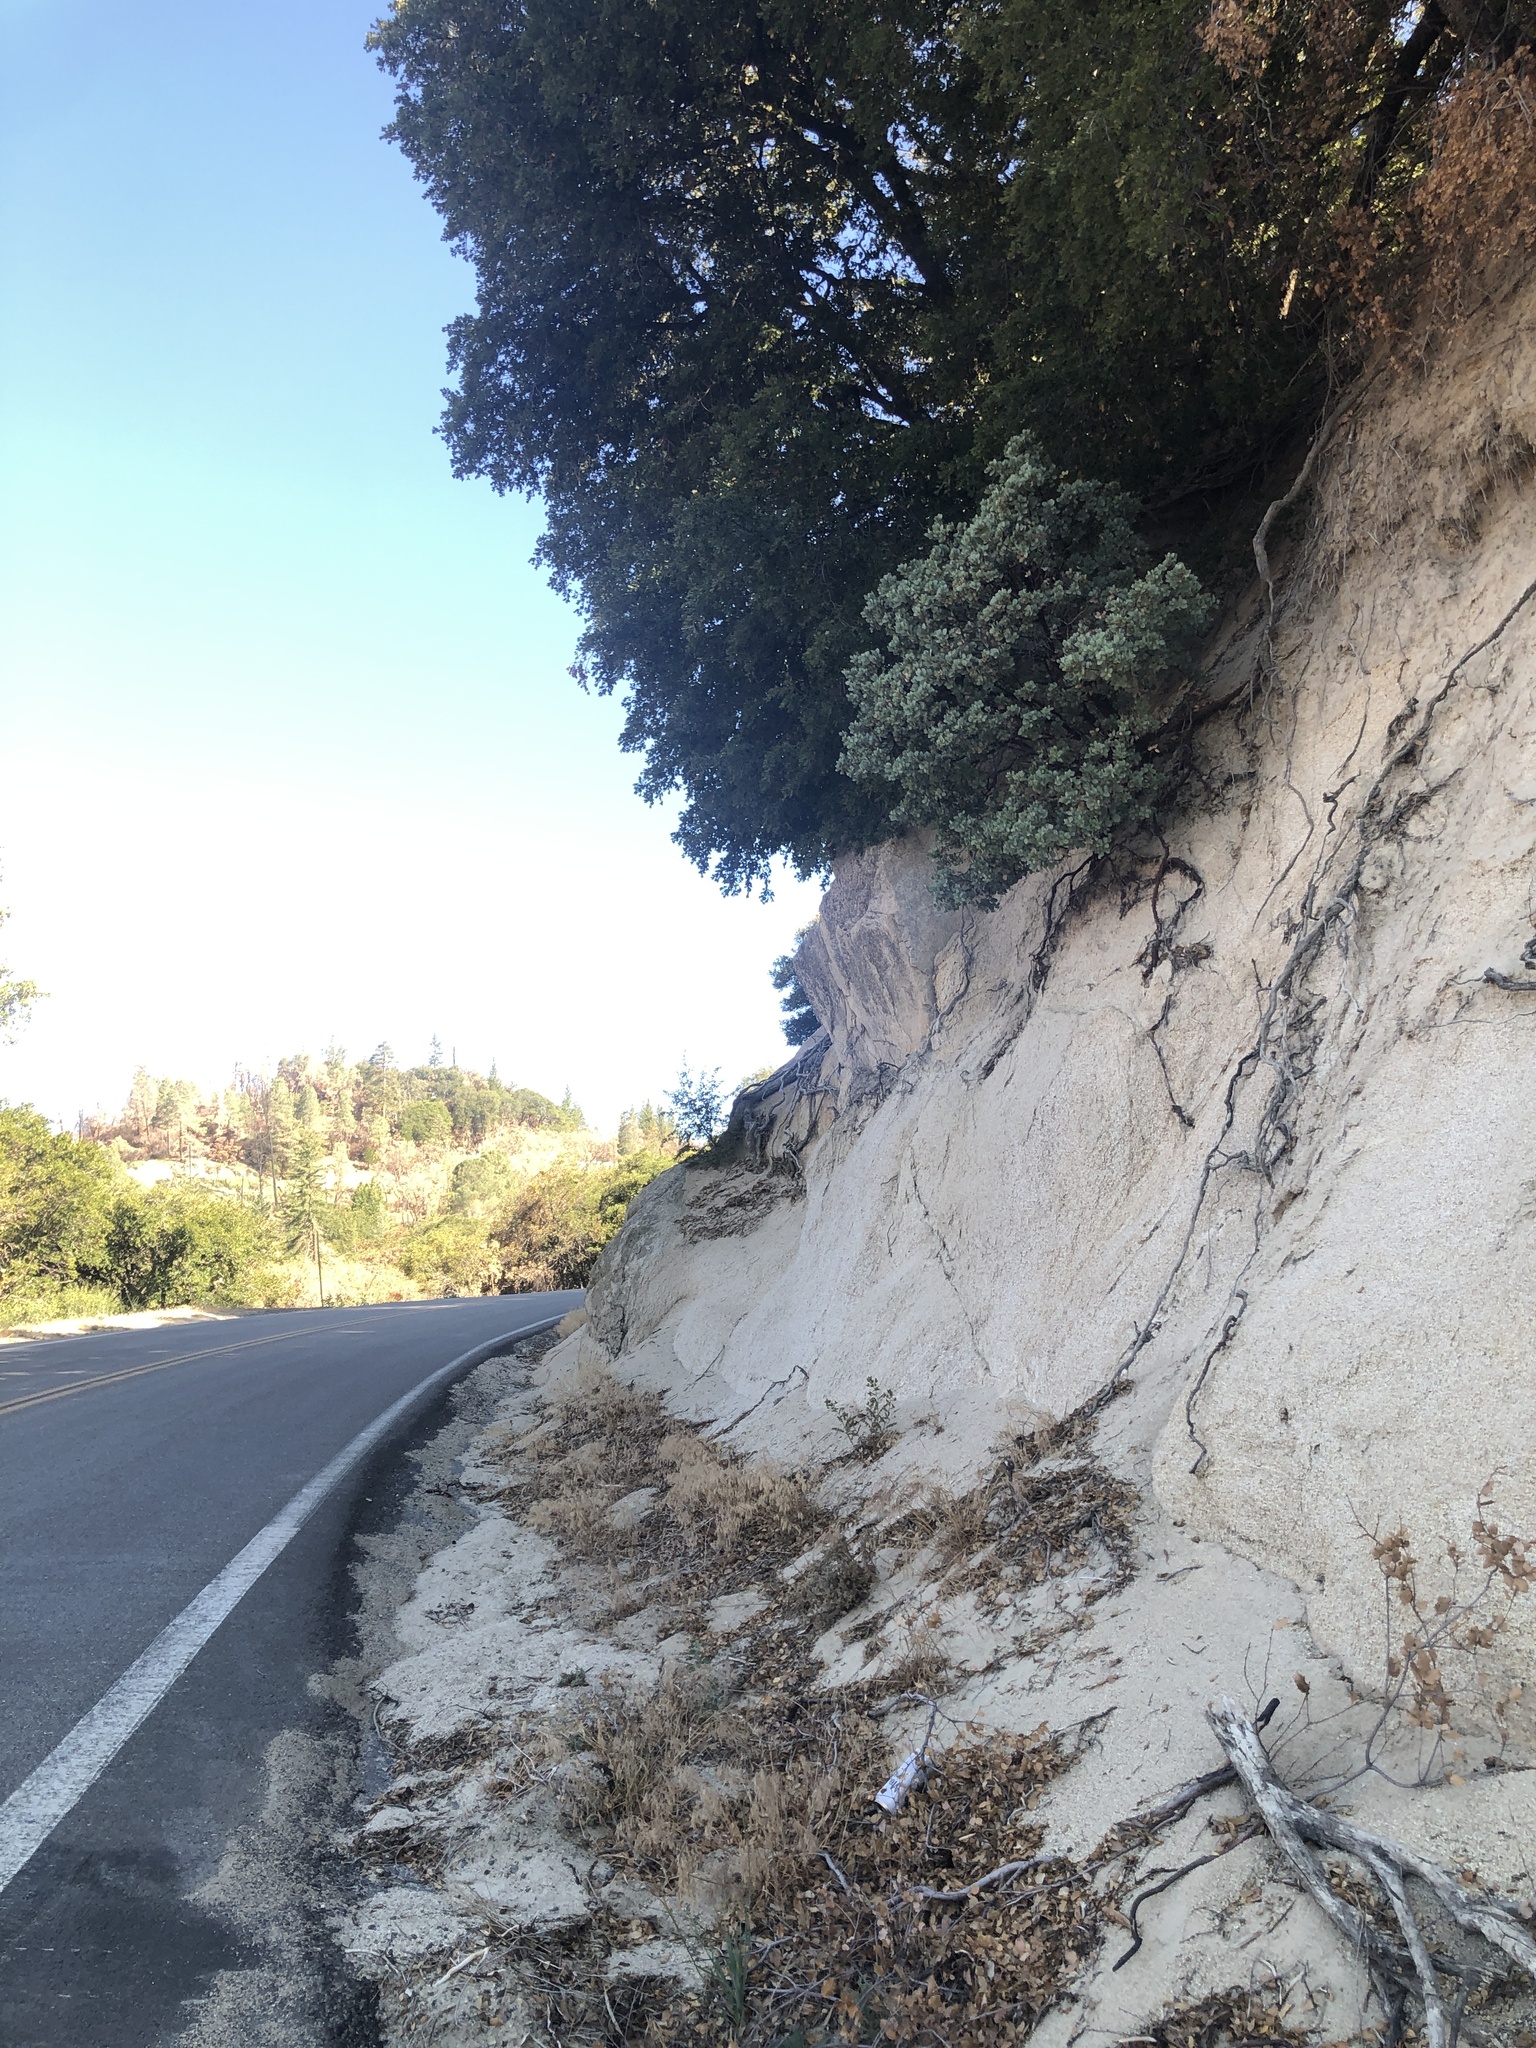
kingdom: Plantae
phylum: Tracheophyta
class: Magnoliopsida
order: Ericales
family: Ericaceae
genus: Arctostaphylos
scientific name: Arctostaphylos viscida
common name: White-leaf manzanita
